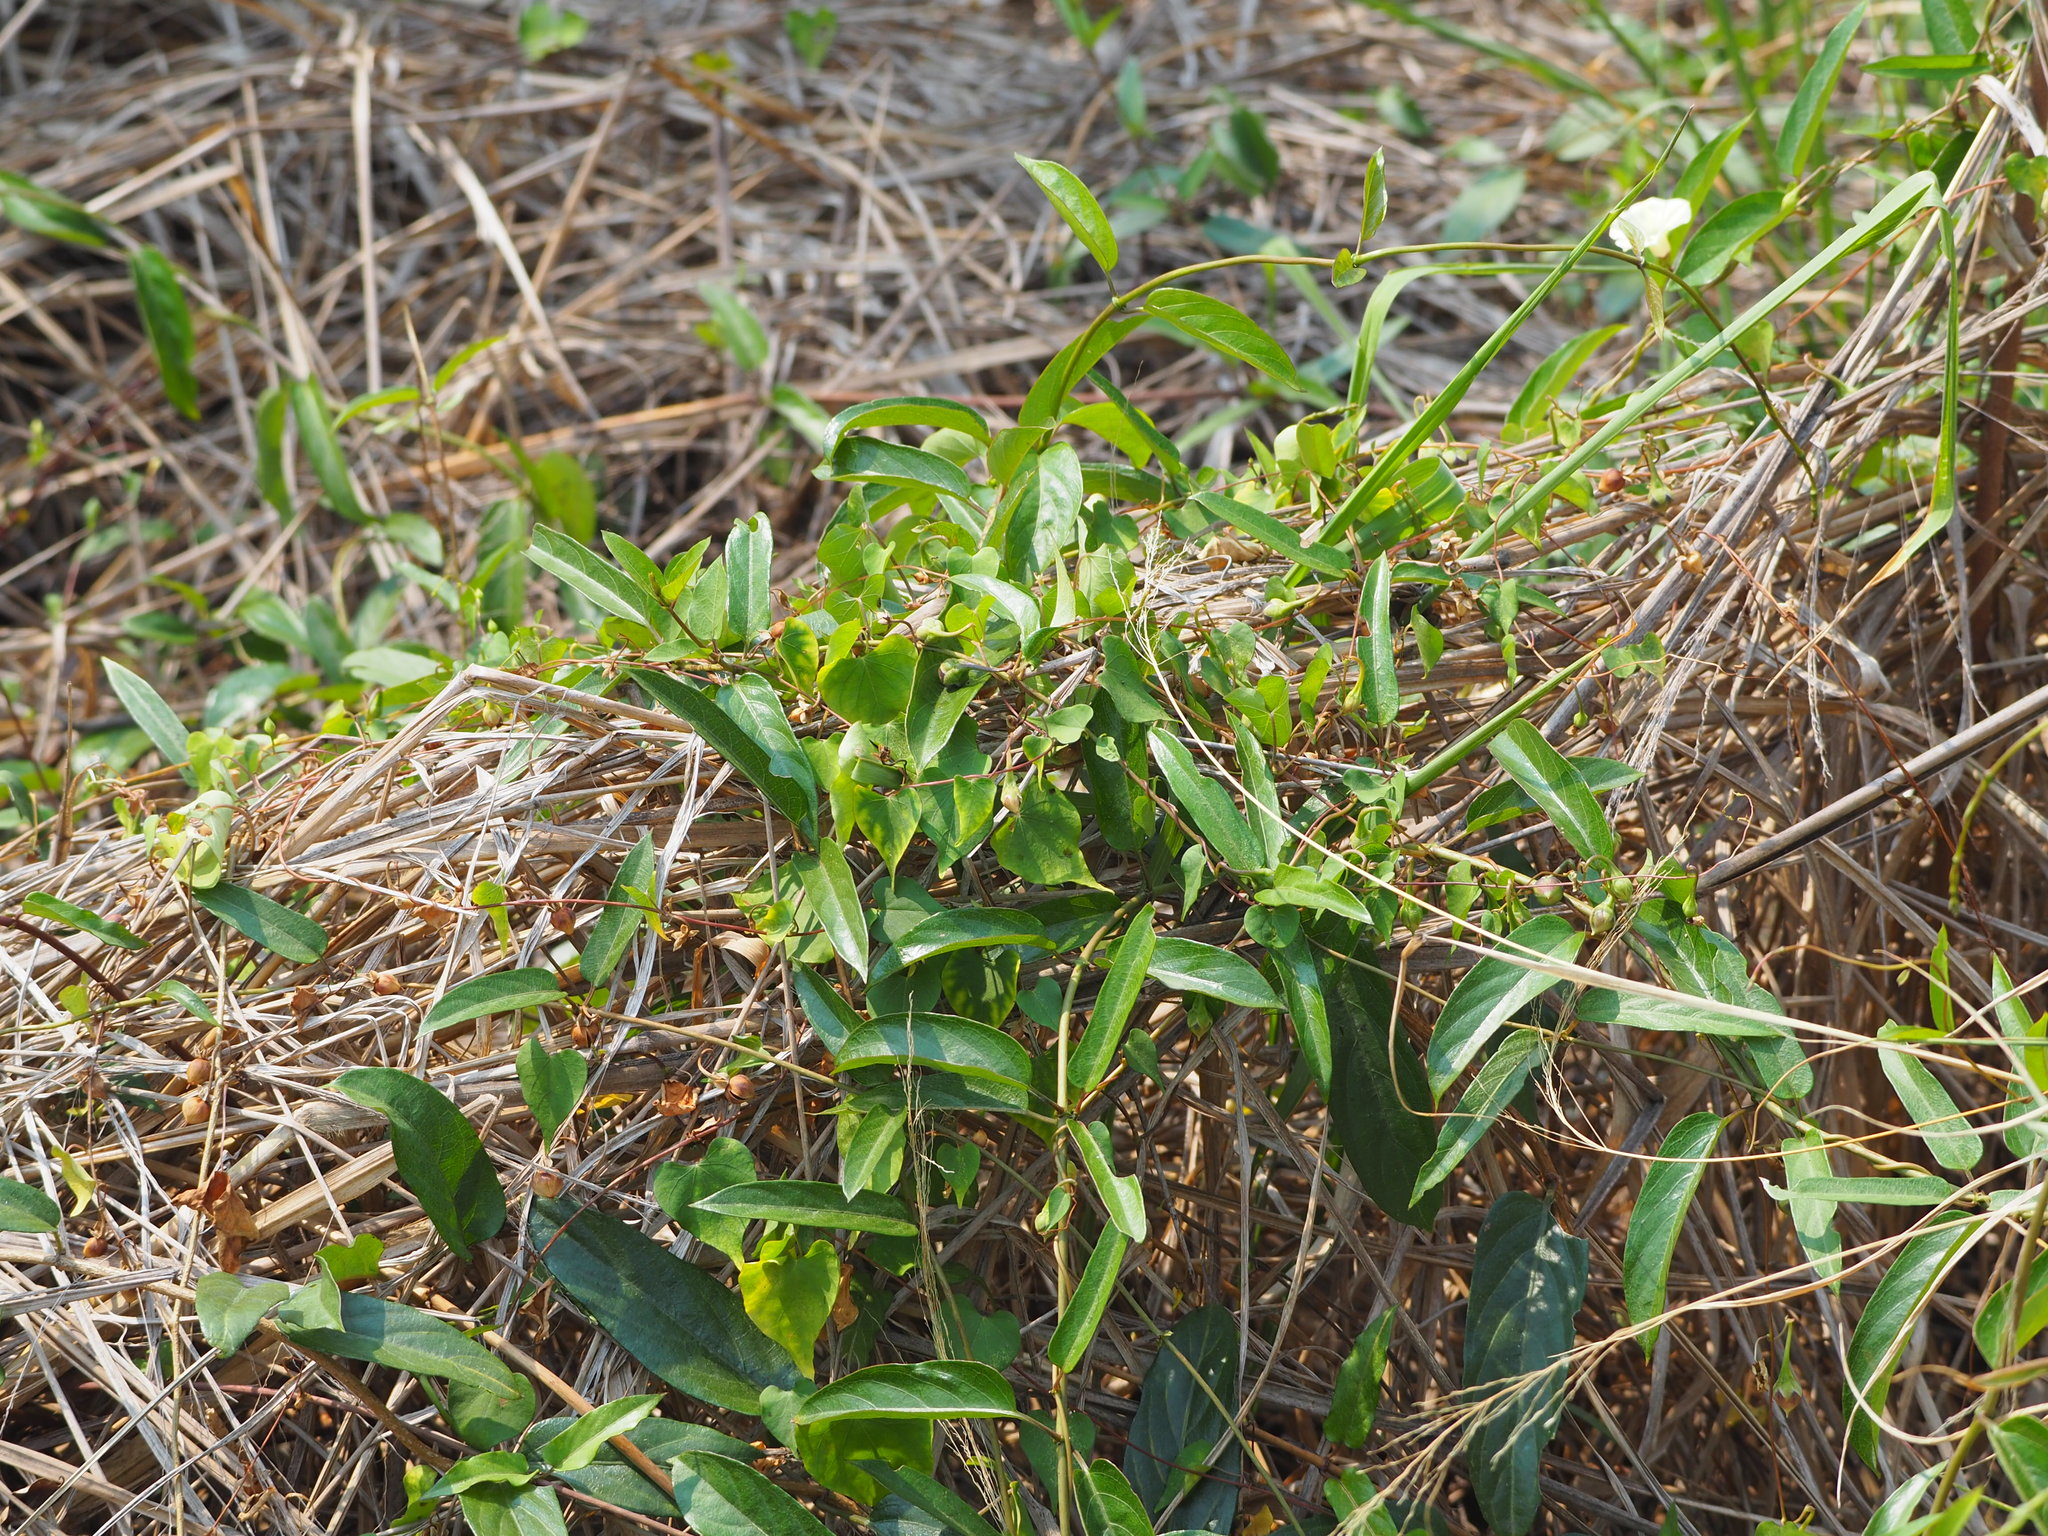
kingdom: Plantae
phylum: Tracheophyta
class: Magnoliopsida
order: Gentianales
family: Rubiaceae
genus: Paederia
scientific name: Paederia foetida
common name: Stinkvine
